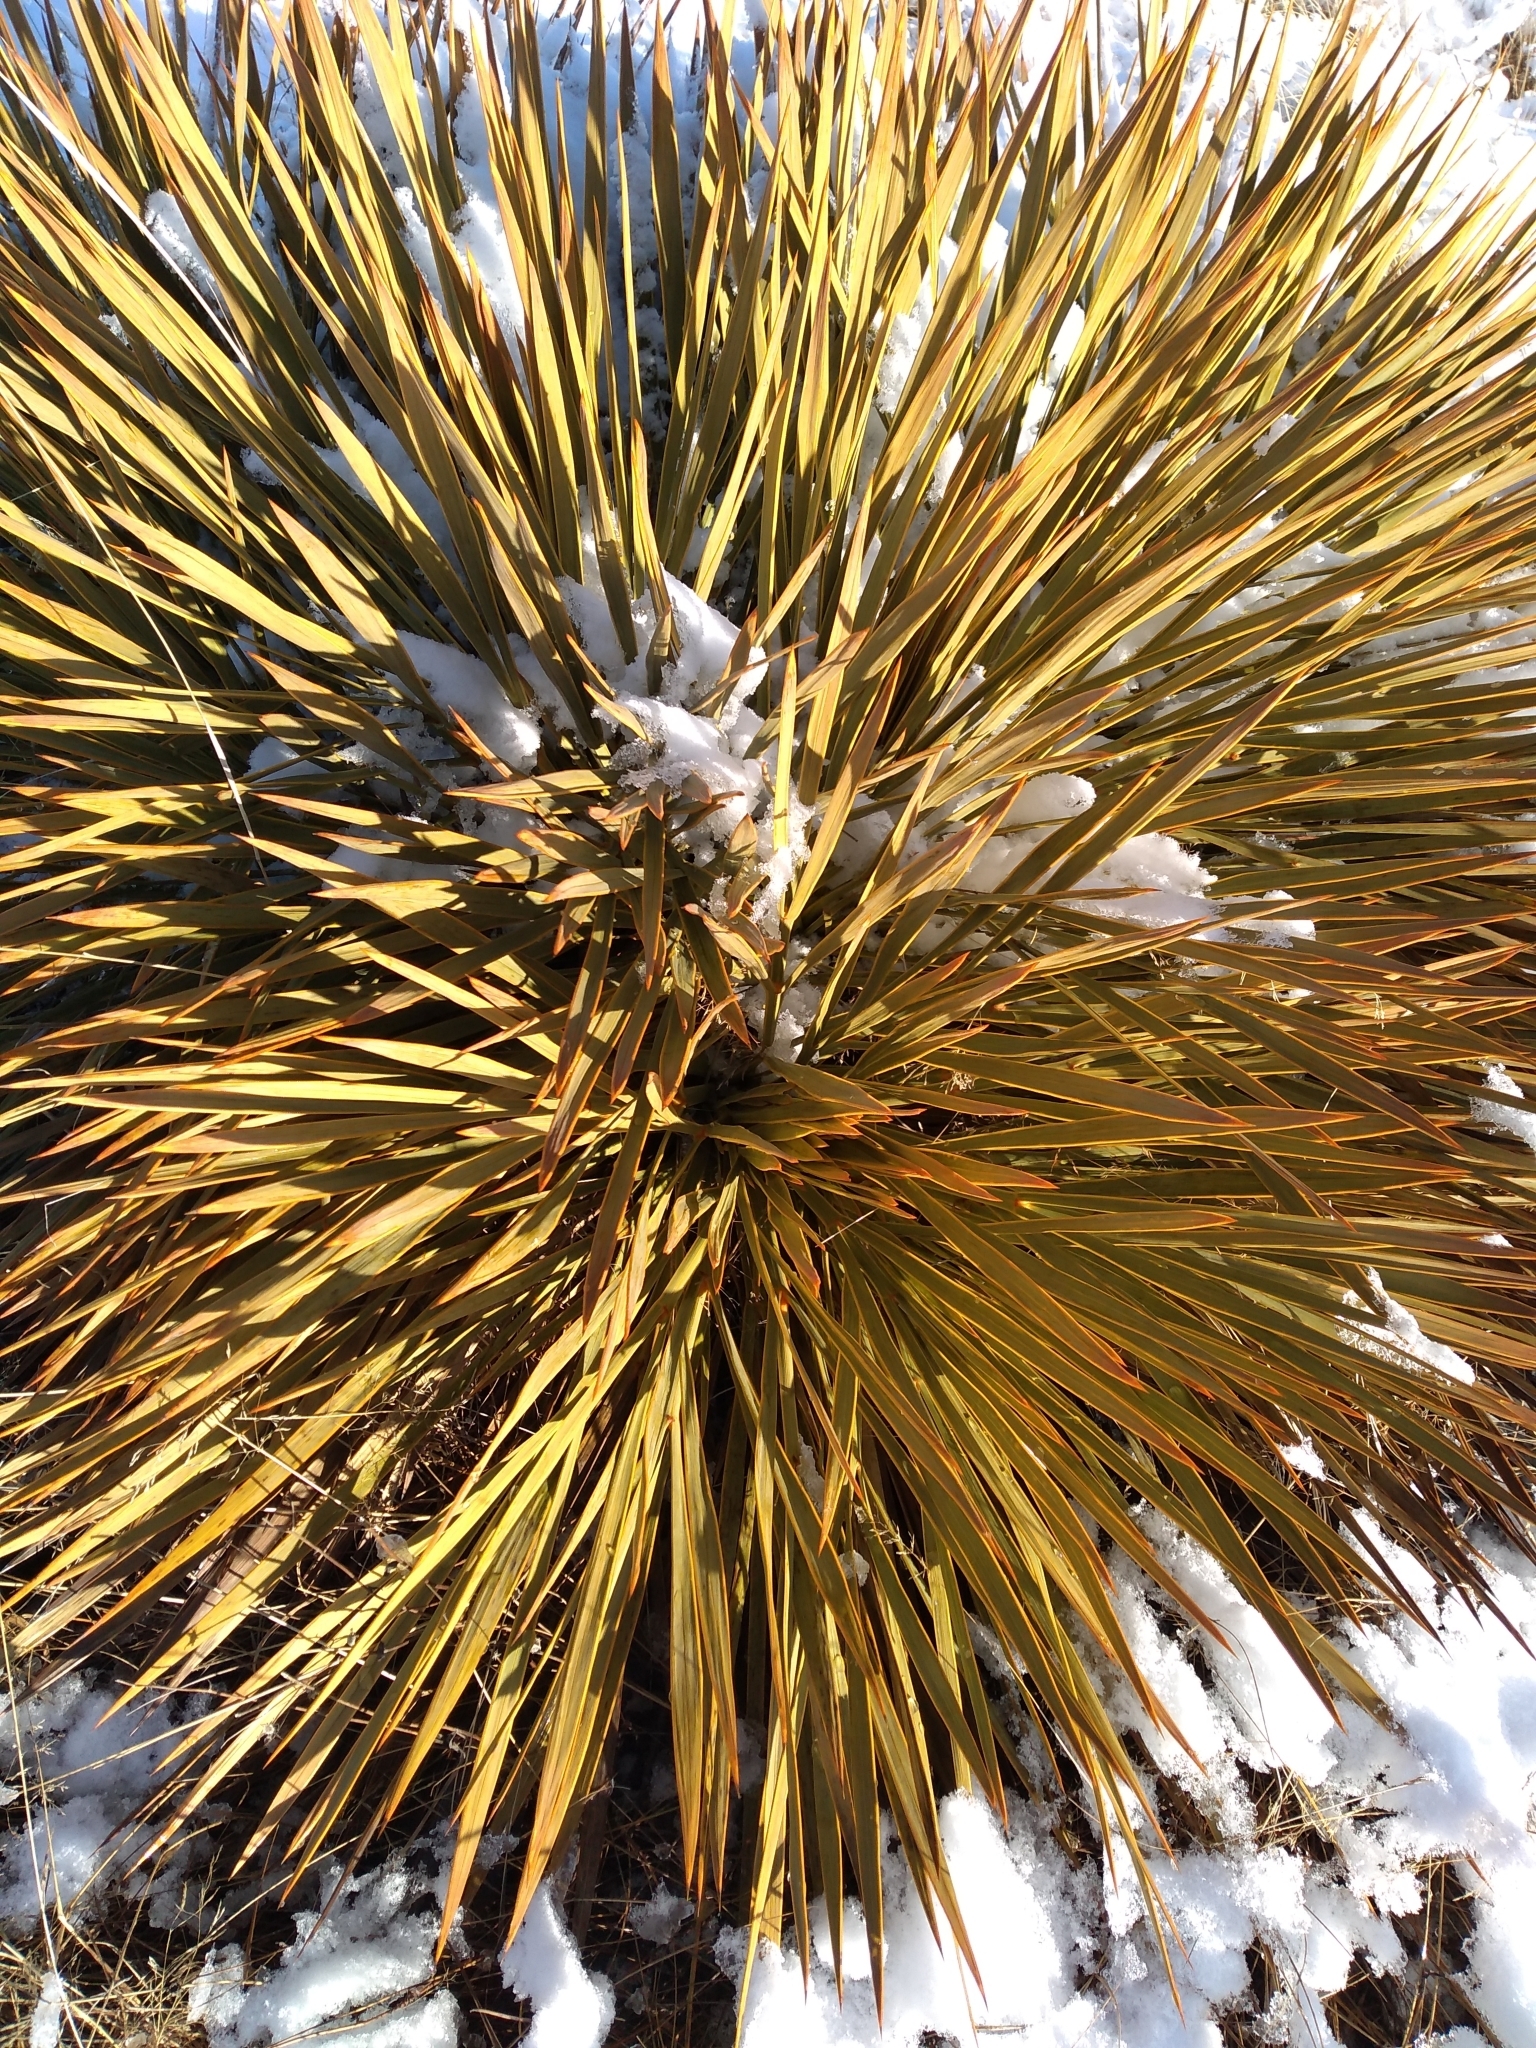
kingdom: Plantae
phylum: Tracheophyta
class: Magnoliopsida
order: Apiales
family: Apiaceae
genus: Aciphylla
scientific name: Aciphylla aurea
